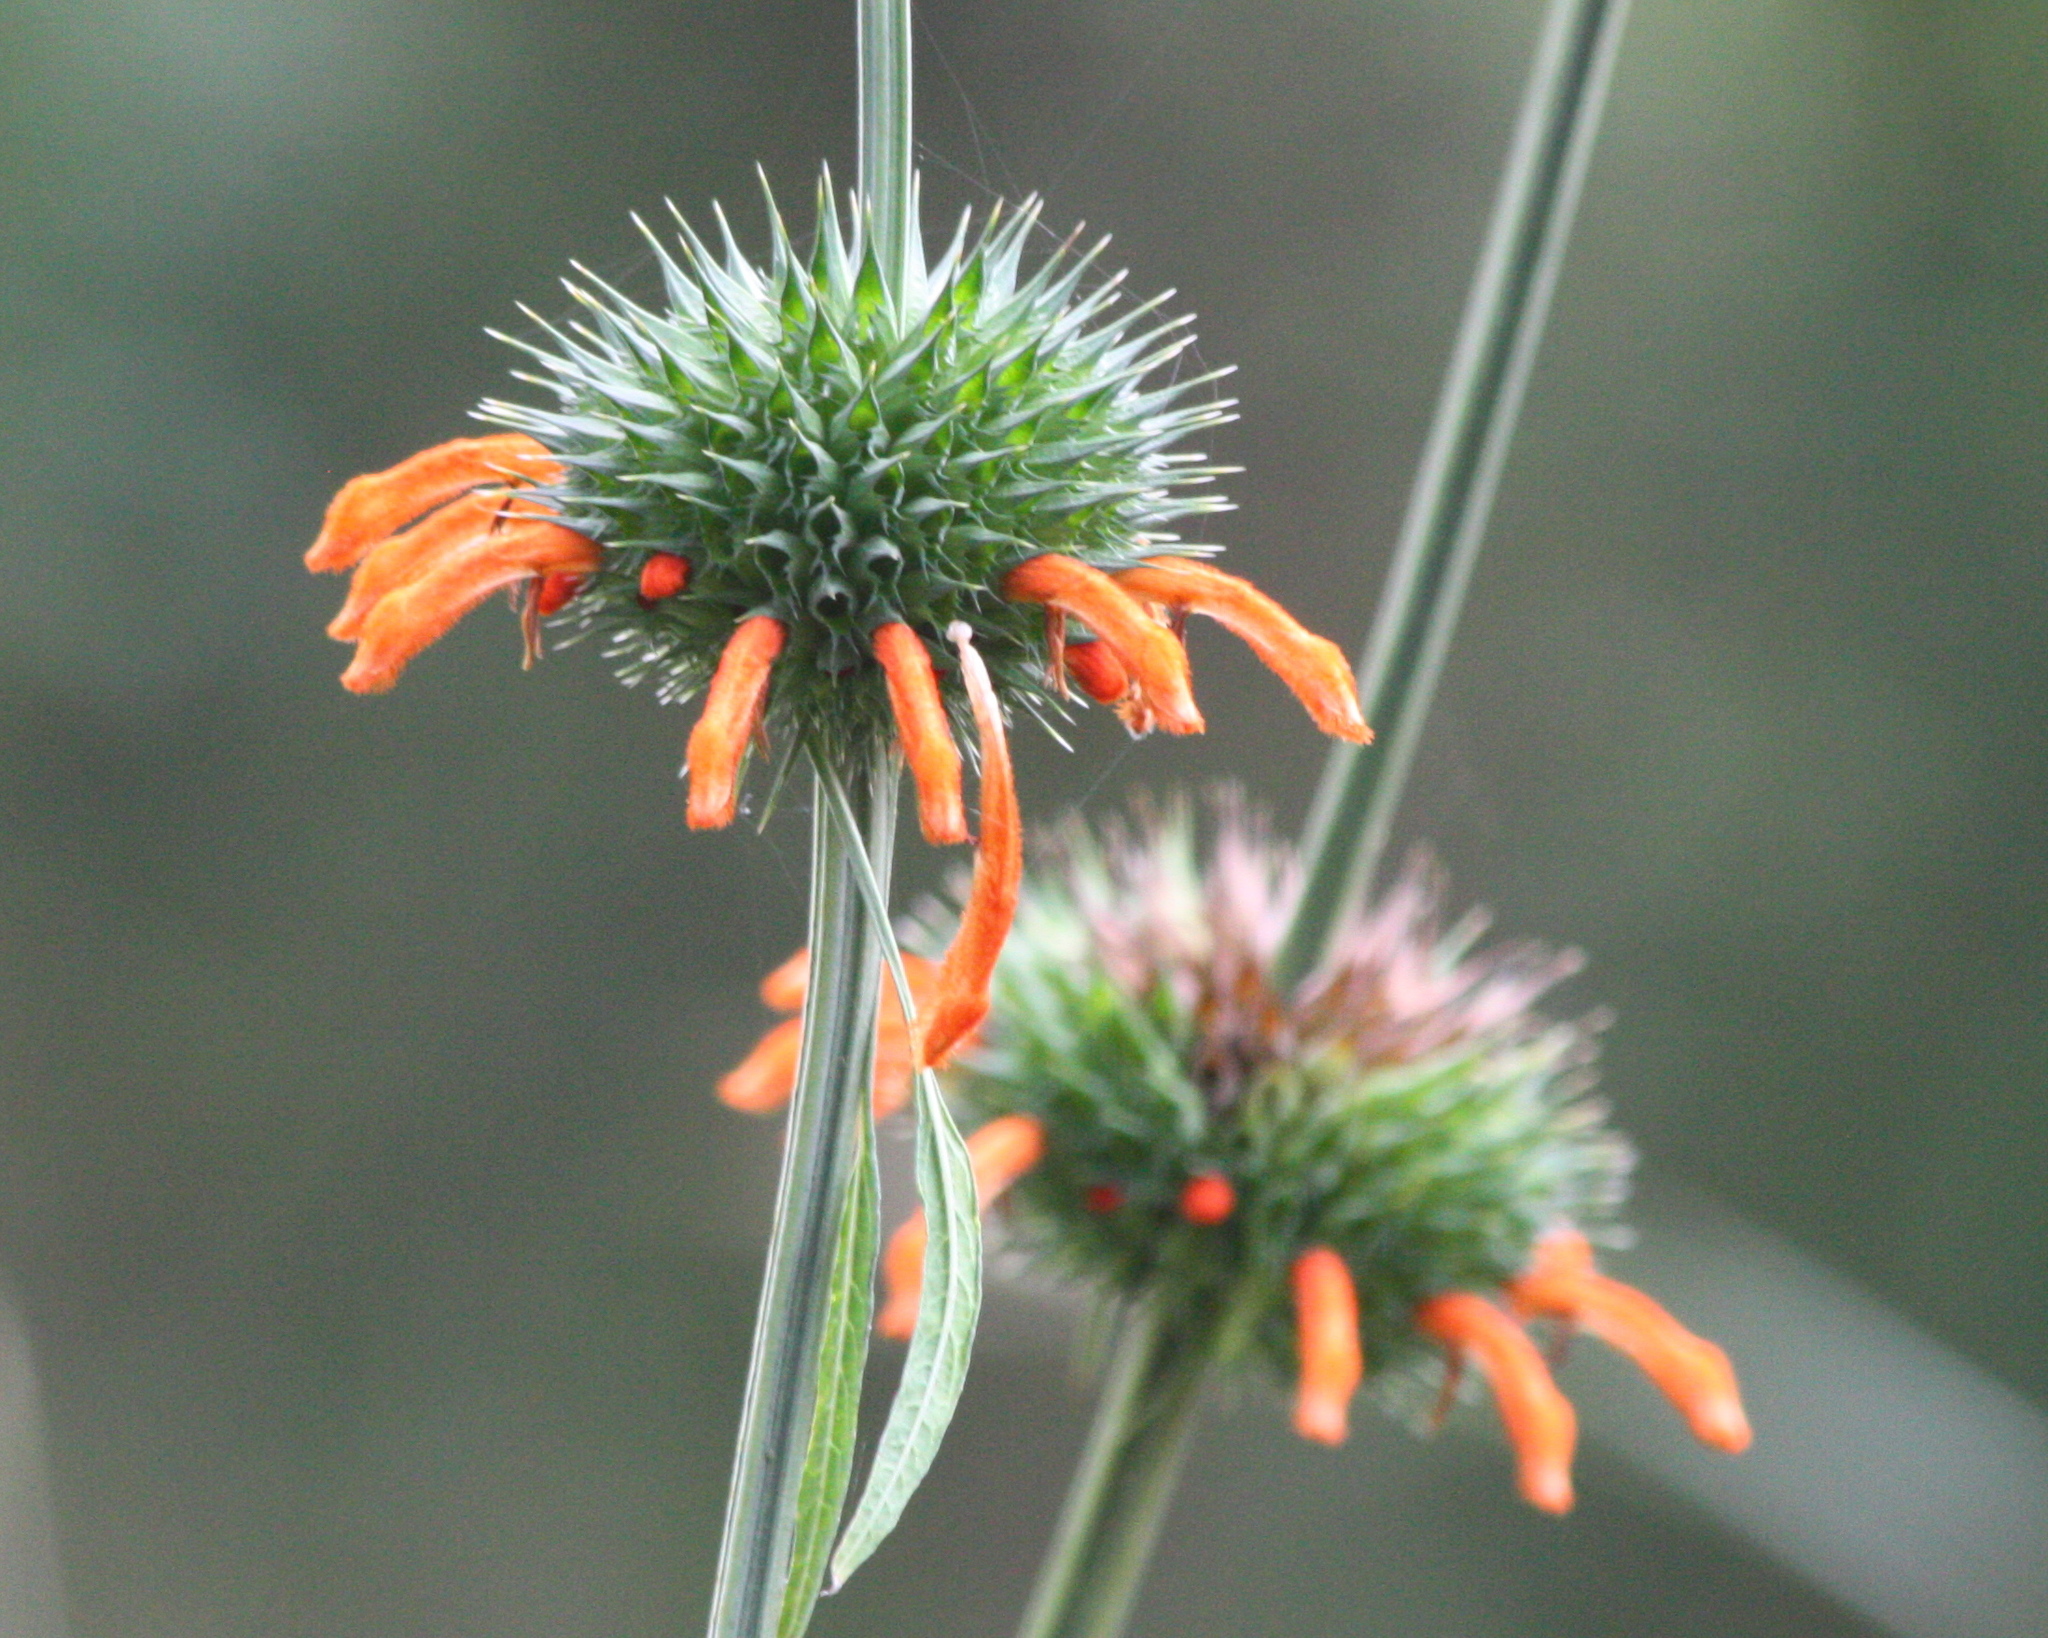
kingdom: Plantae
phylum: Tracheophyta
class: Magnoliopsida
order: Lamiales
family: Lamiaceae
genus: Leonotis
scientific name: Leonotis nepetifolia
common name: Christmas candlestick
